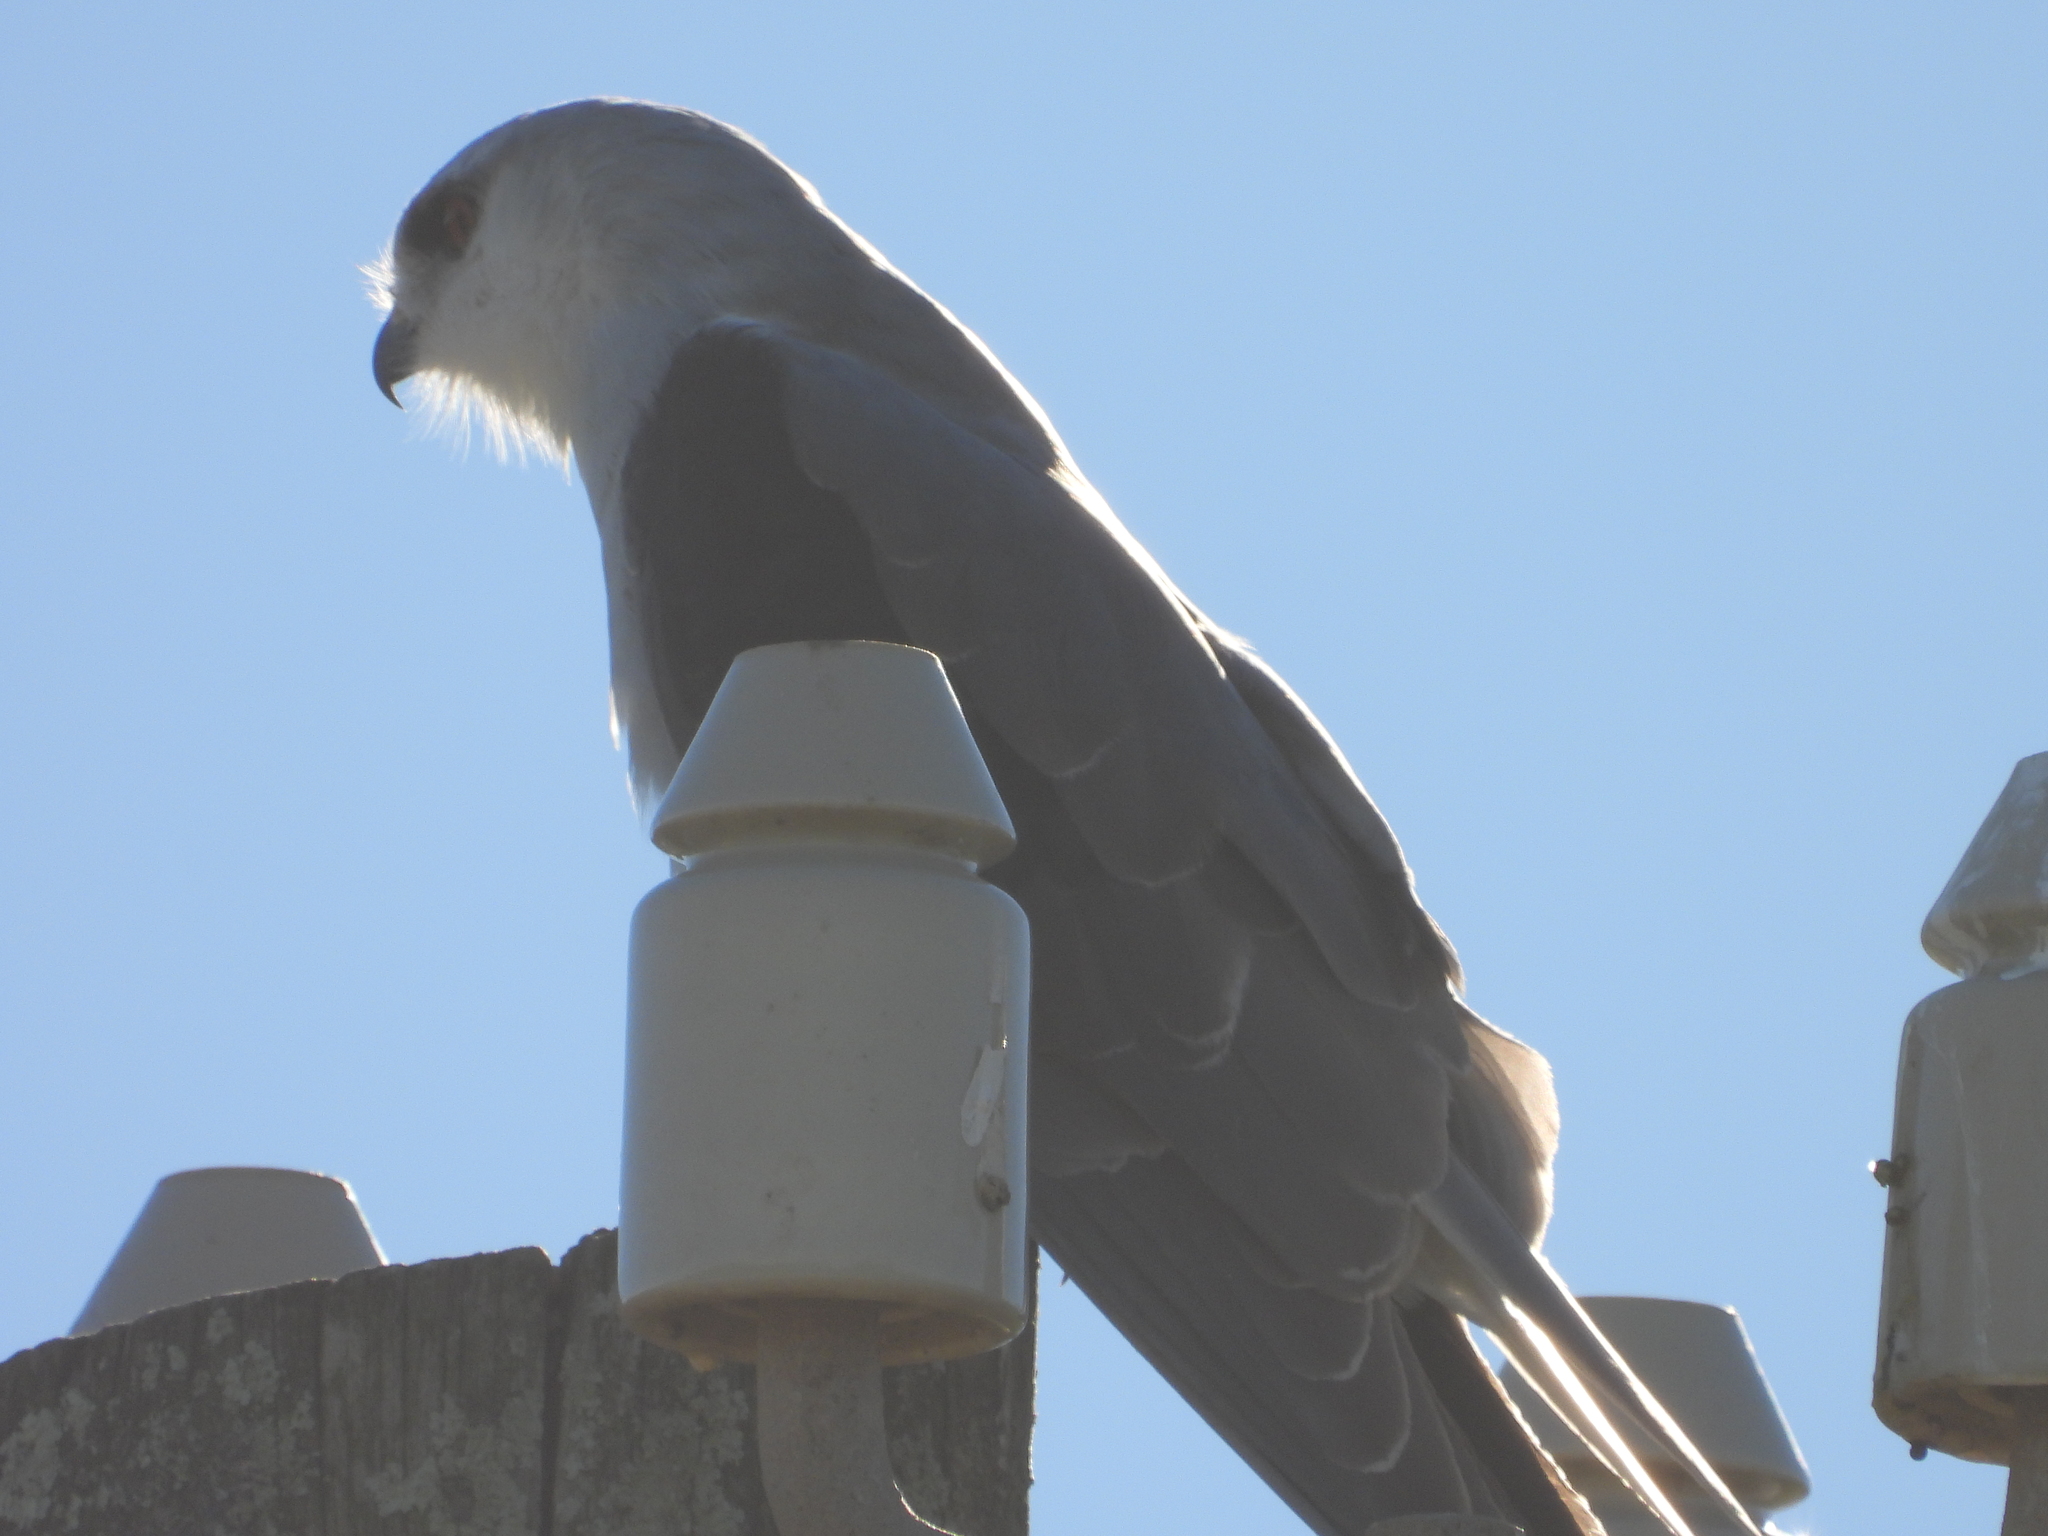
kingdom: Animalia
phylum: Chordata
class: Aves
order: Accipitriformes
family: Accipitridae
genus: Elanus
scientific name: Elanus caeruleus
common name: Black-winged kite
